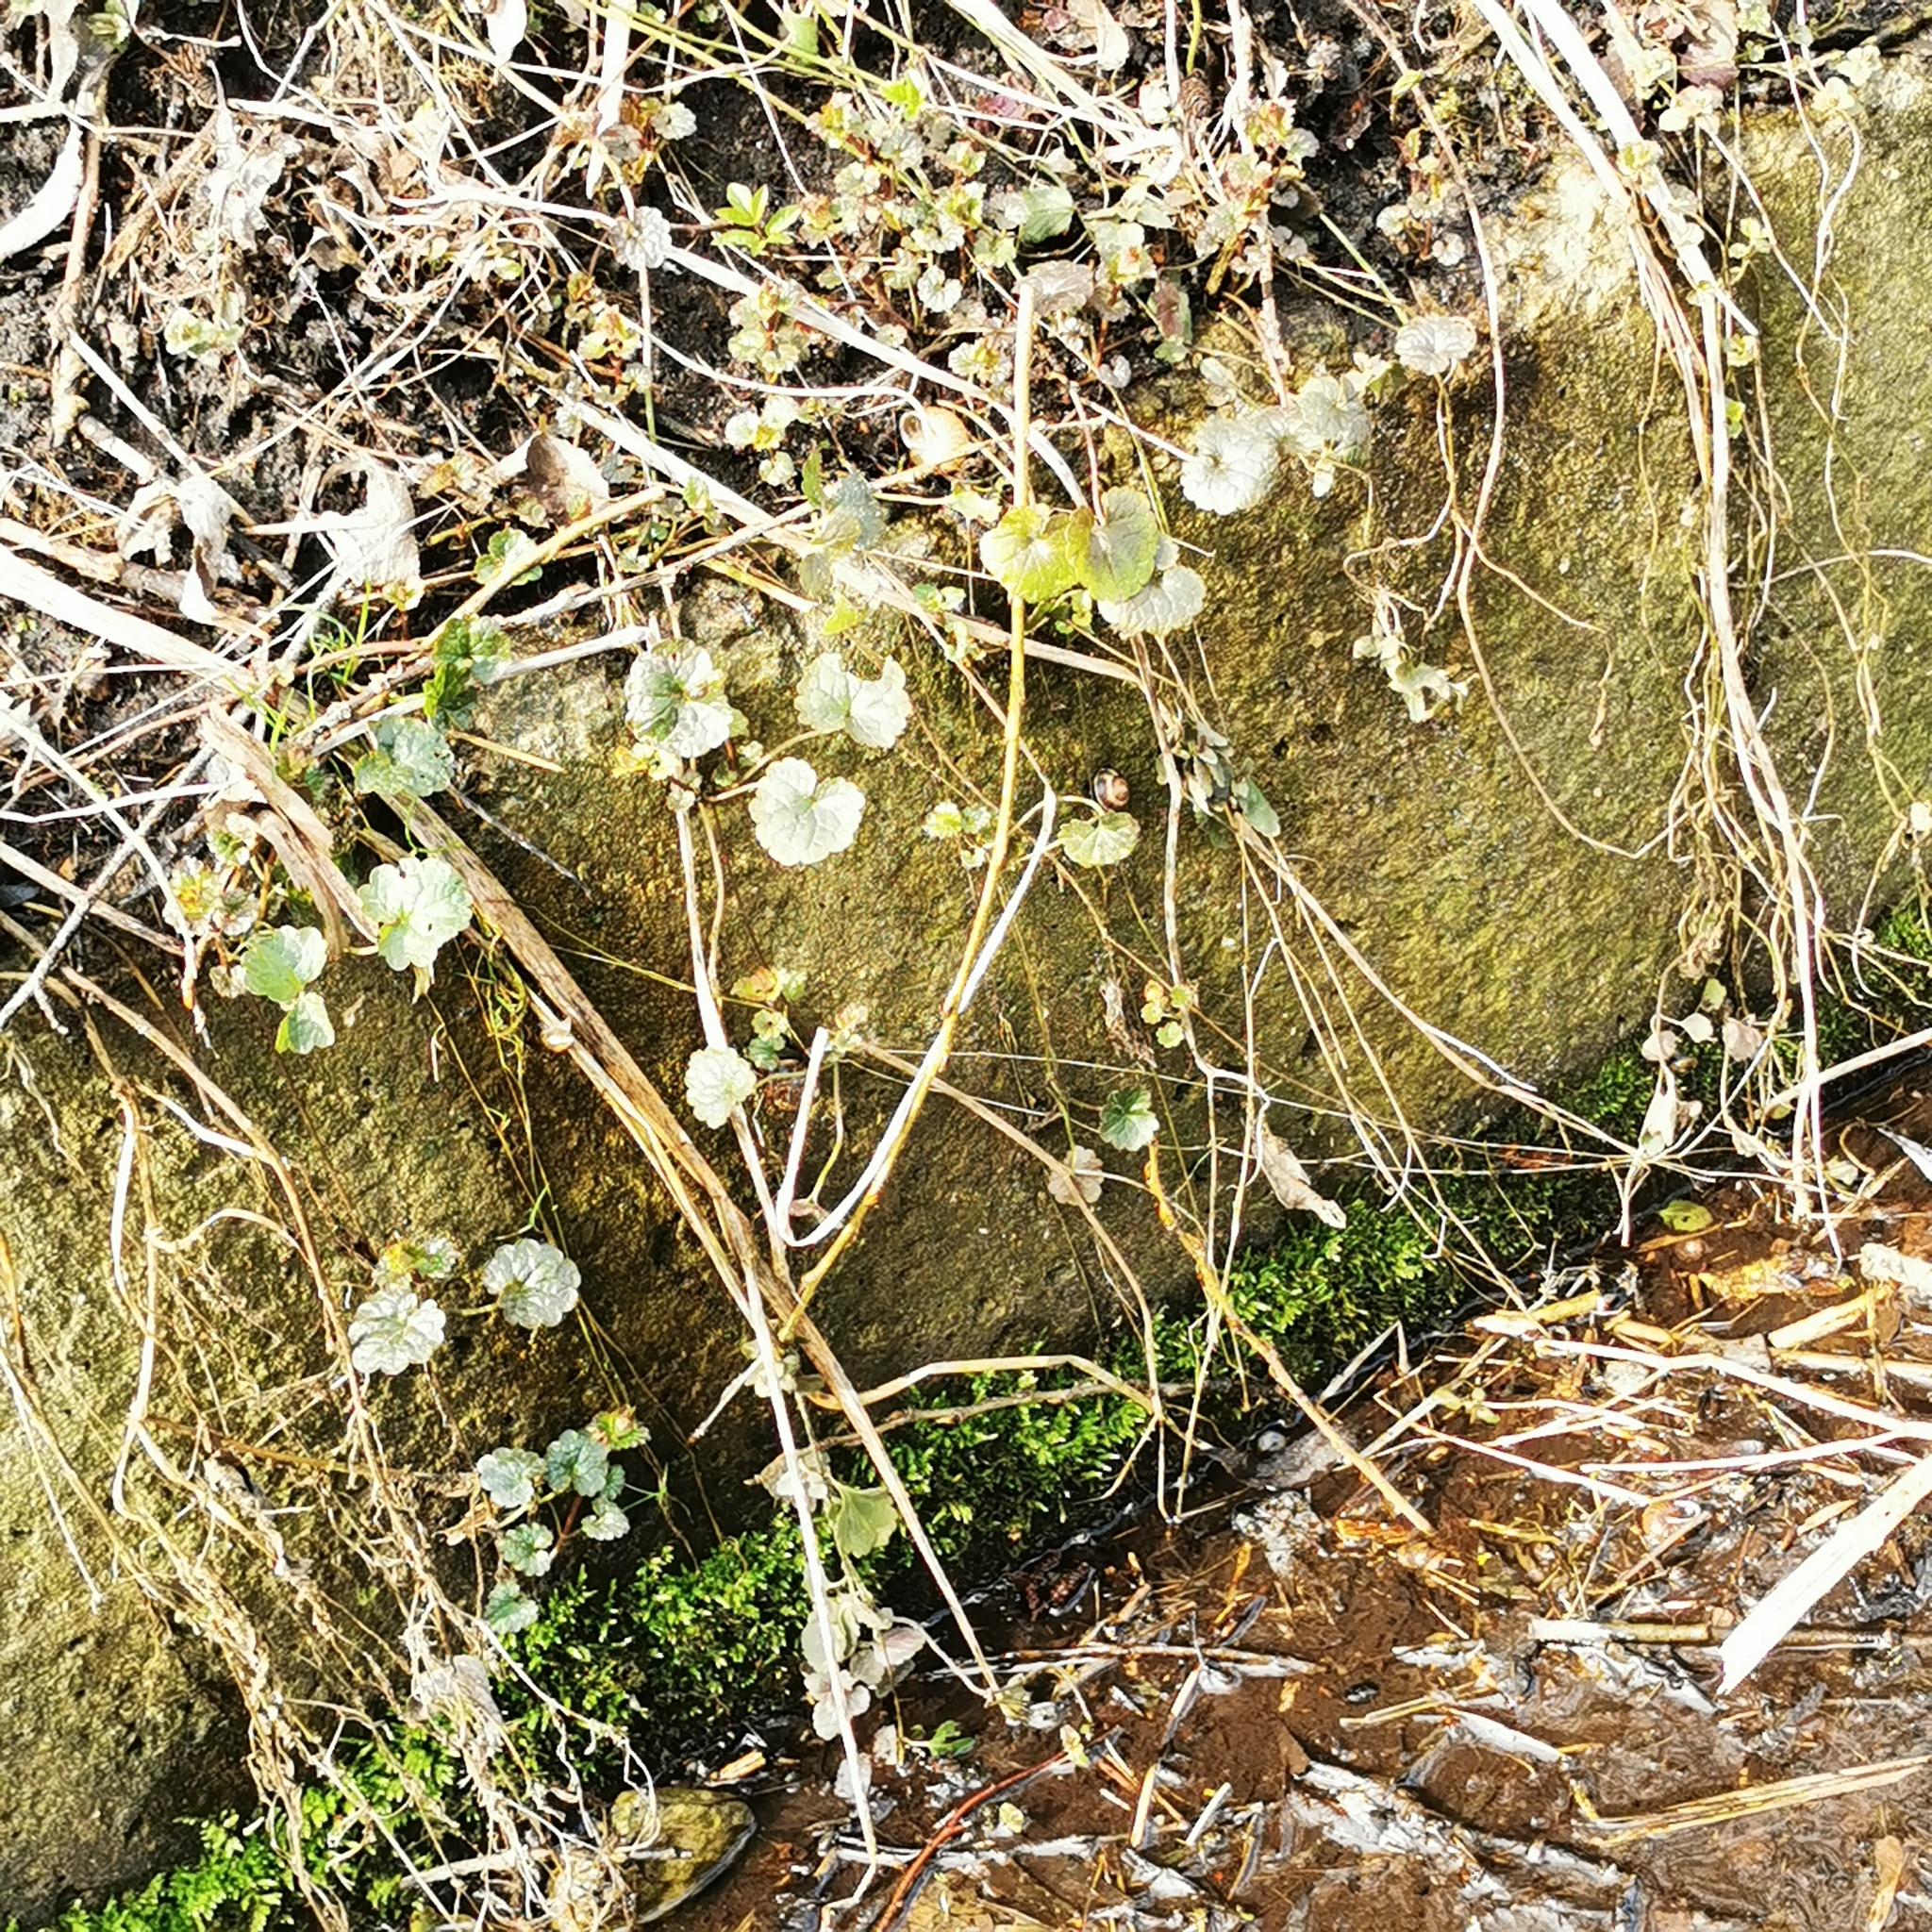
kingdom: Plantae
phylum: Tracheophyta
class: Magnoliopsida
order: Lamiales
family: Lamiaceae
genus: Glechoma
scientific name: Glechoma hederacea
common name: Ground ivy
